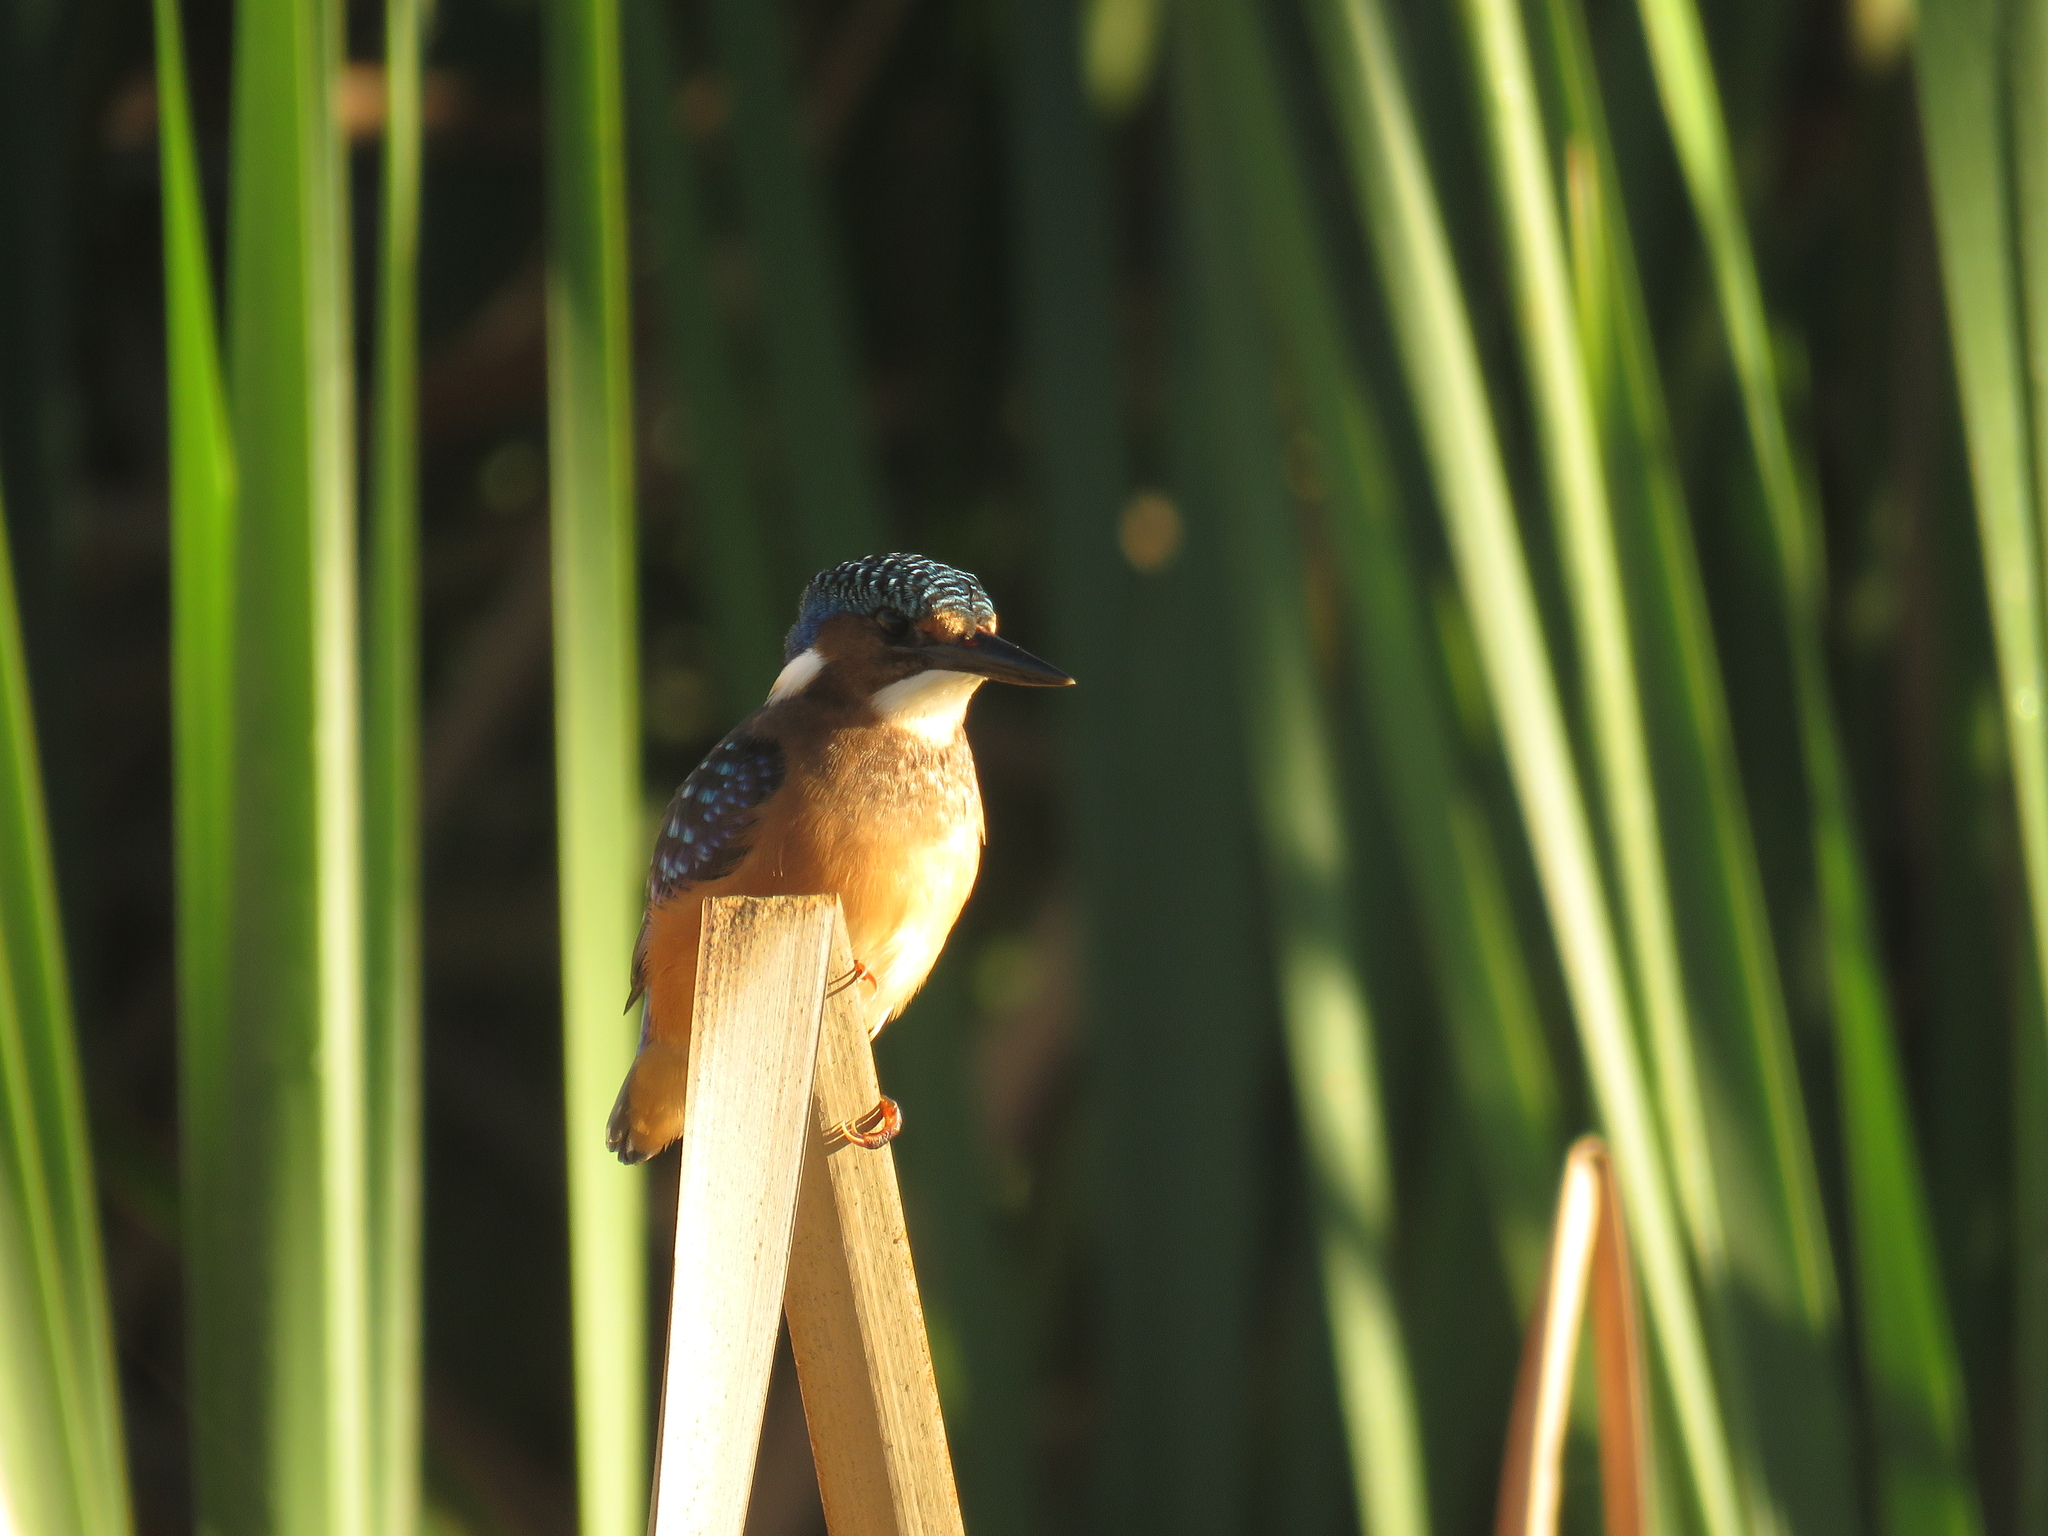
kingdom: Animalia
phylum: Chordata
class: Aves
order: Coraciiformes
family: Alcedinidae
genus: Corythornis
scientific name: Corythornis cristatus
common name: Malachite kingfisher
